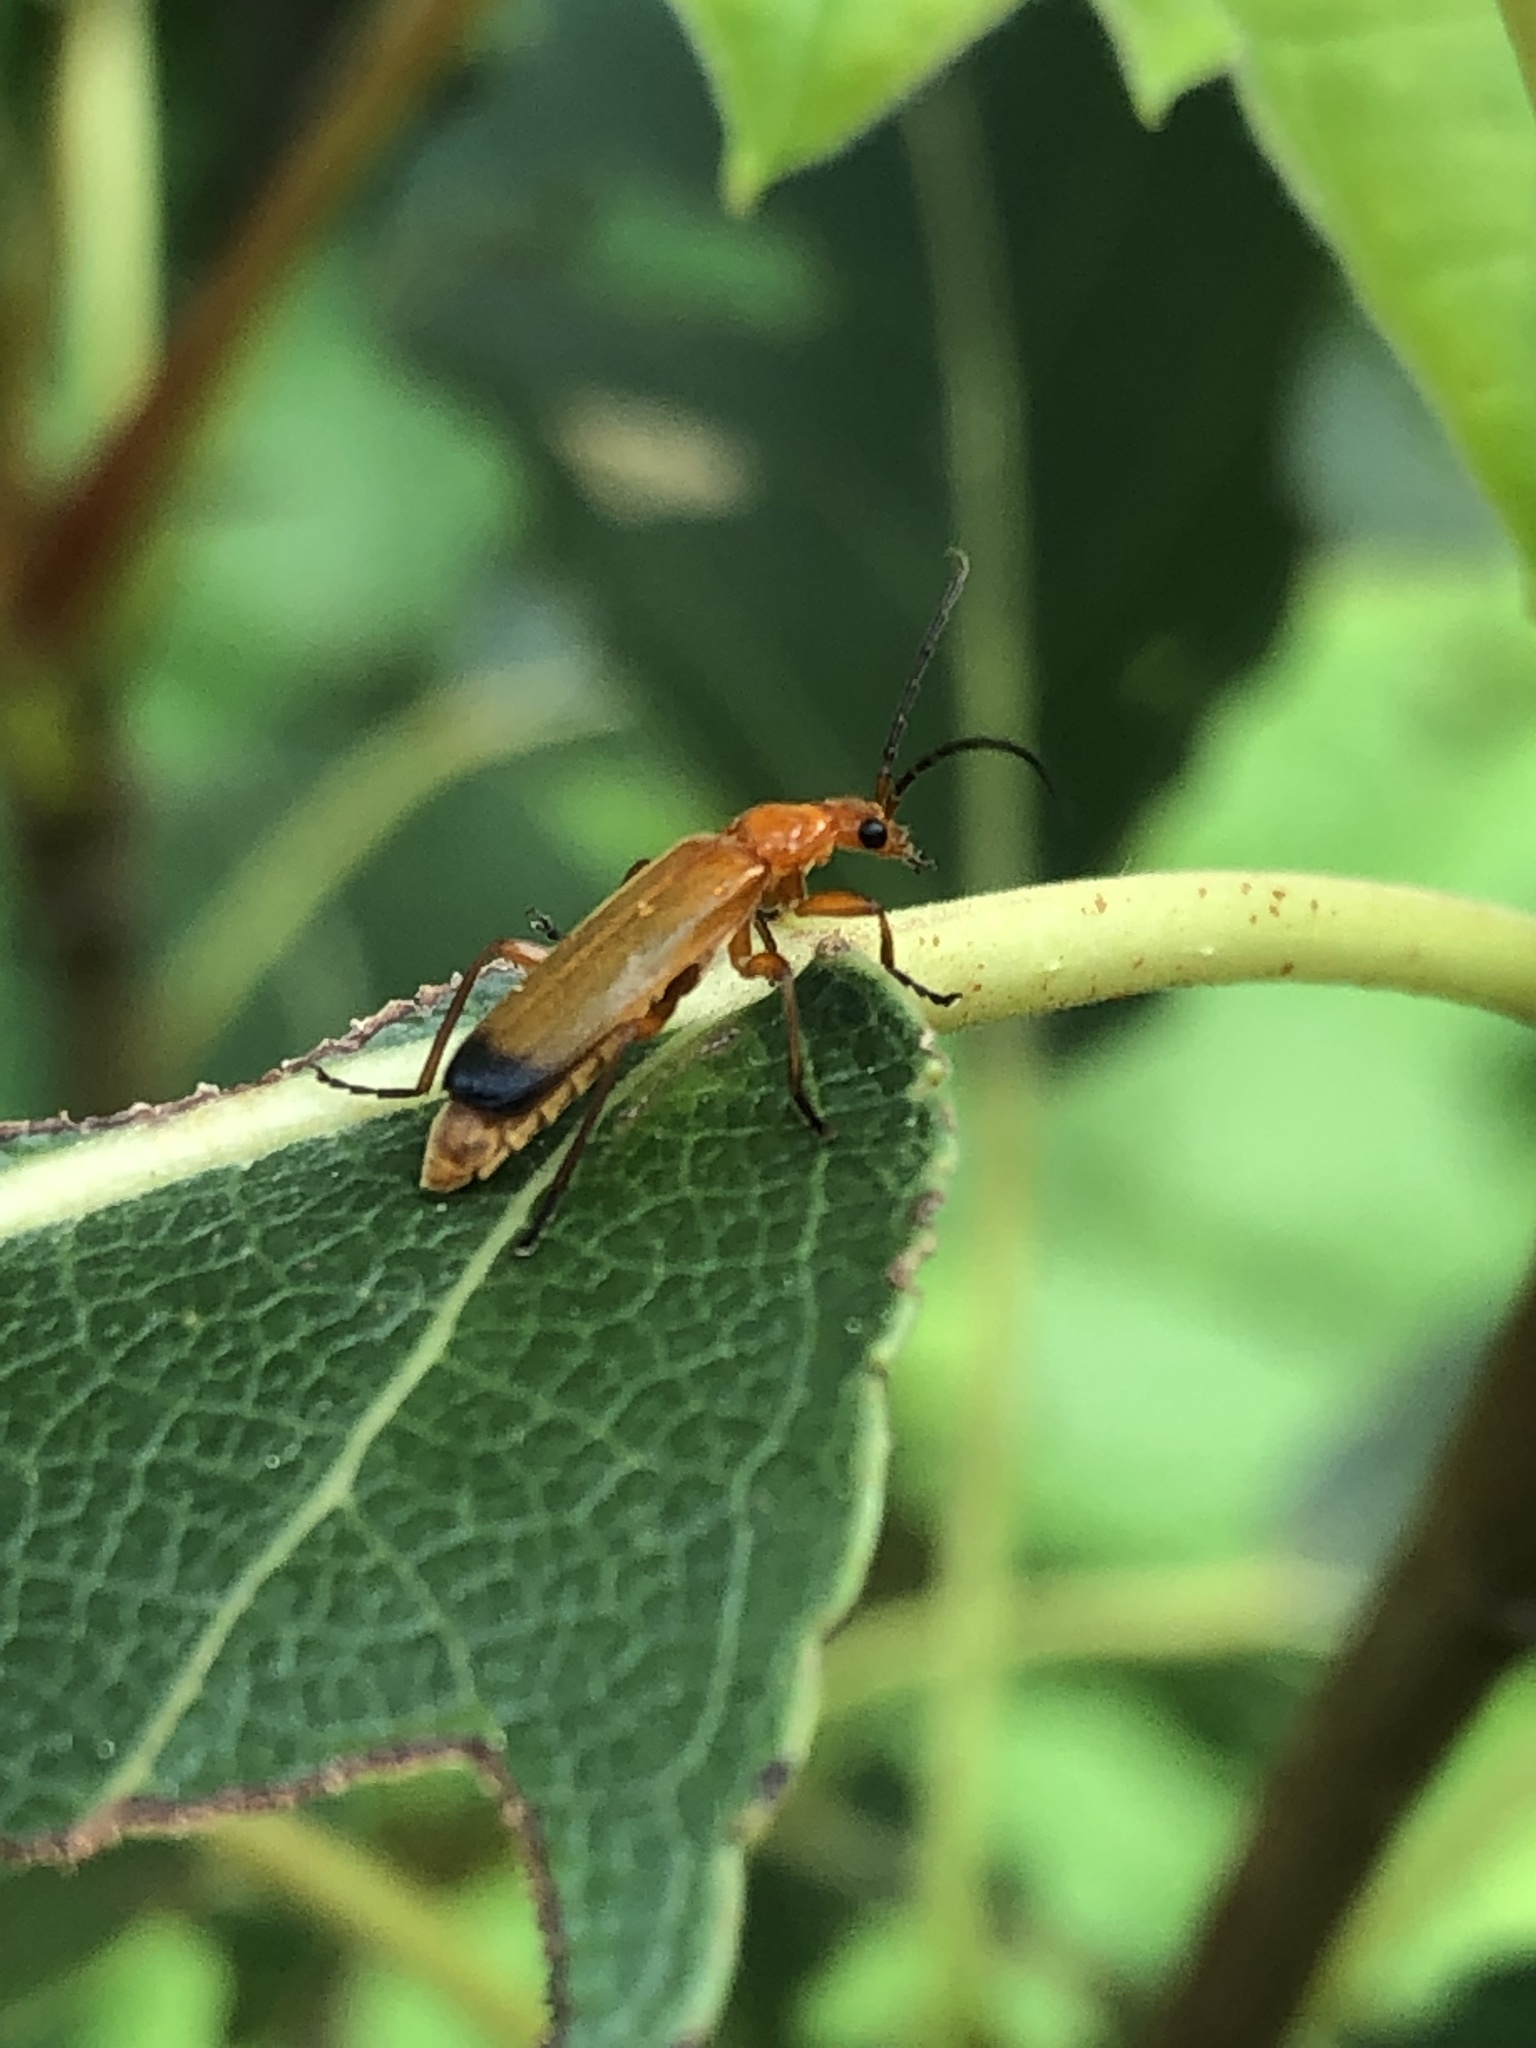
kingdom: Animalia
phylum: Arthropoda
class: Insecta
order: Coleoptera
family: Cantharidae
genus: Rhagonycha
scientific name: Rhagonycha fulva
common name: Common red soldier beetle
